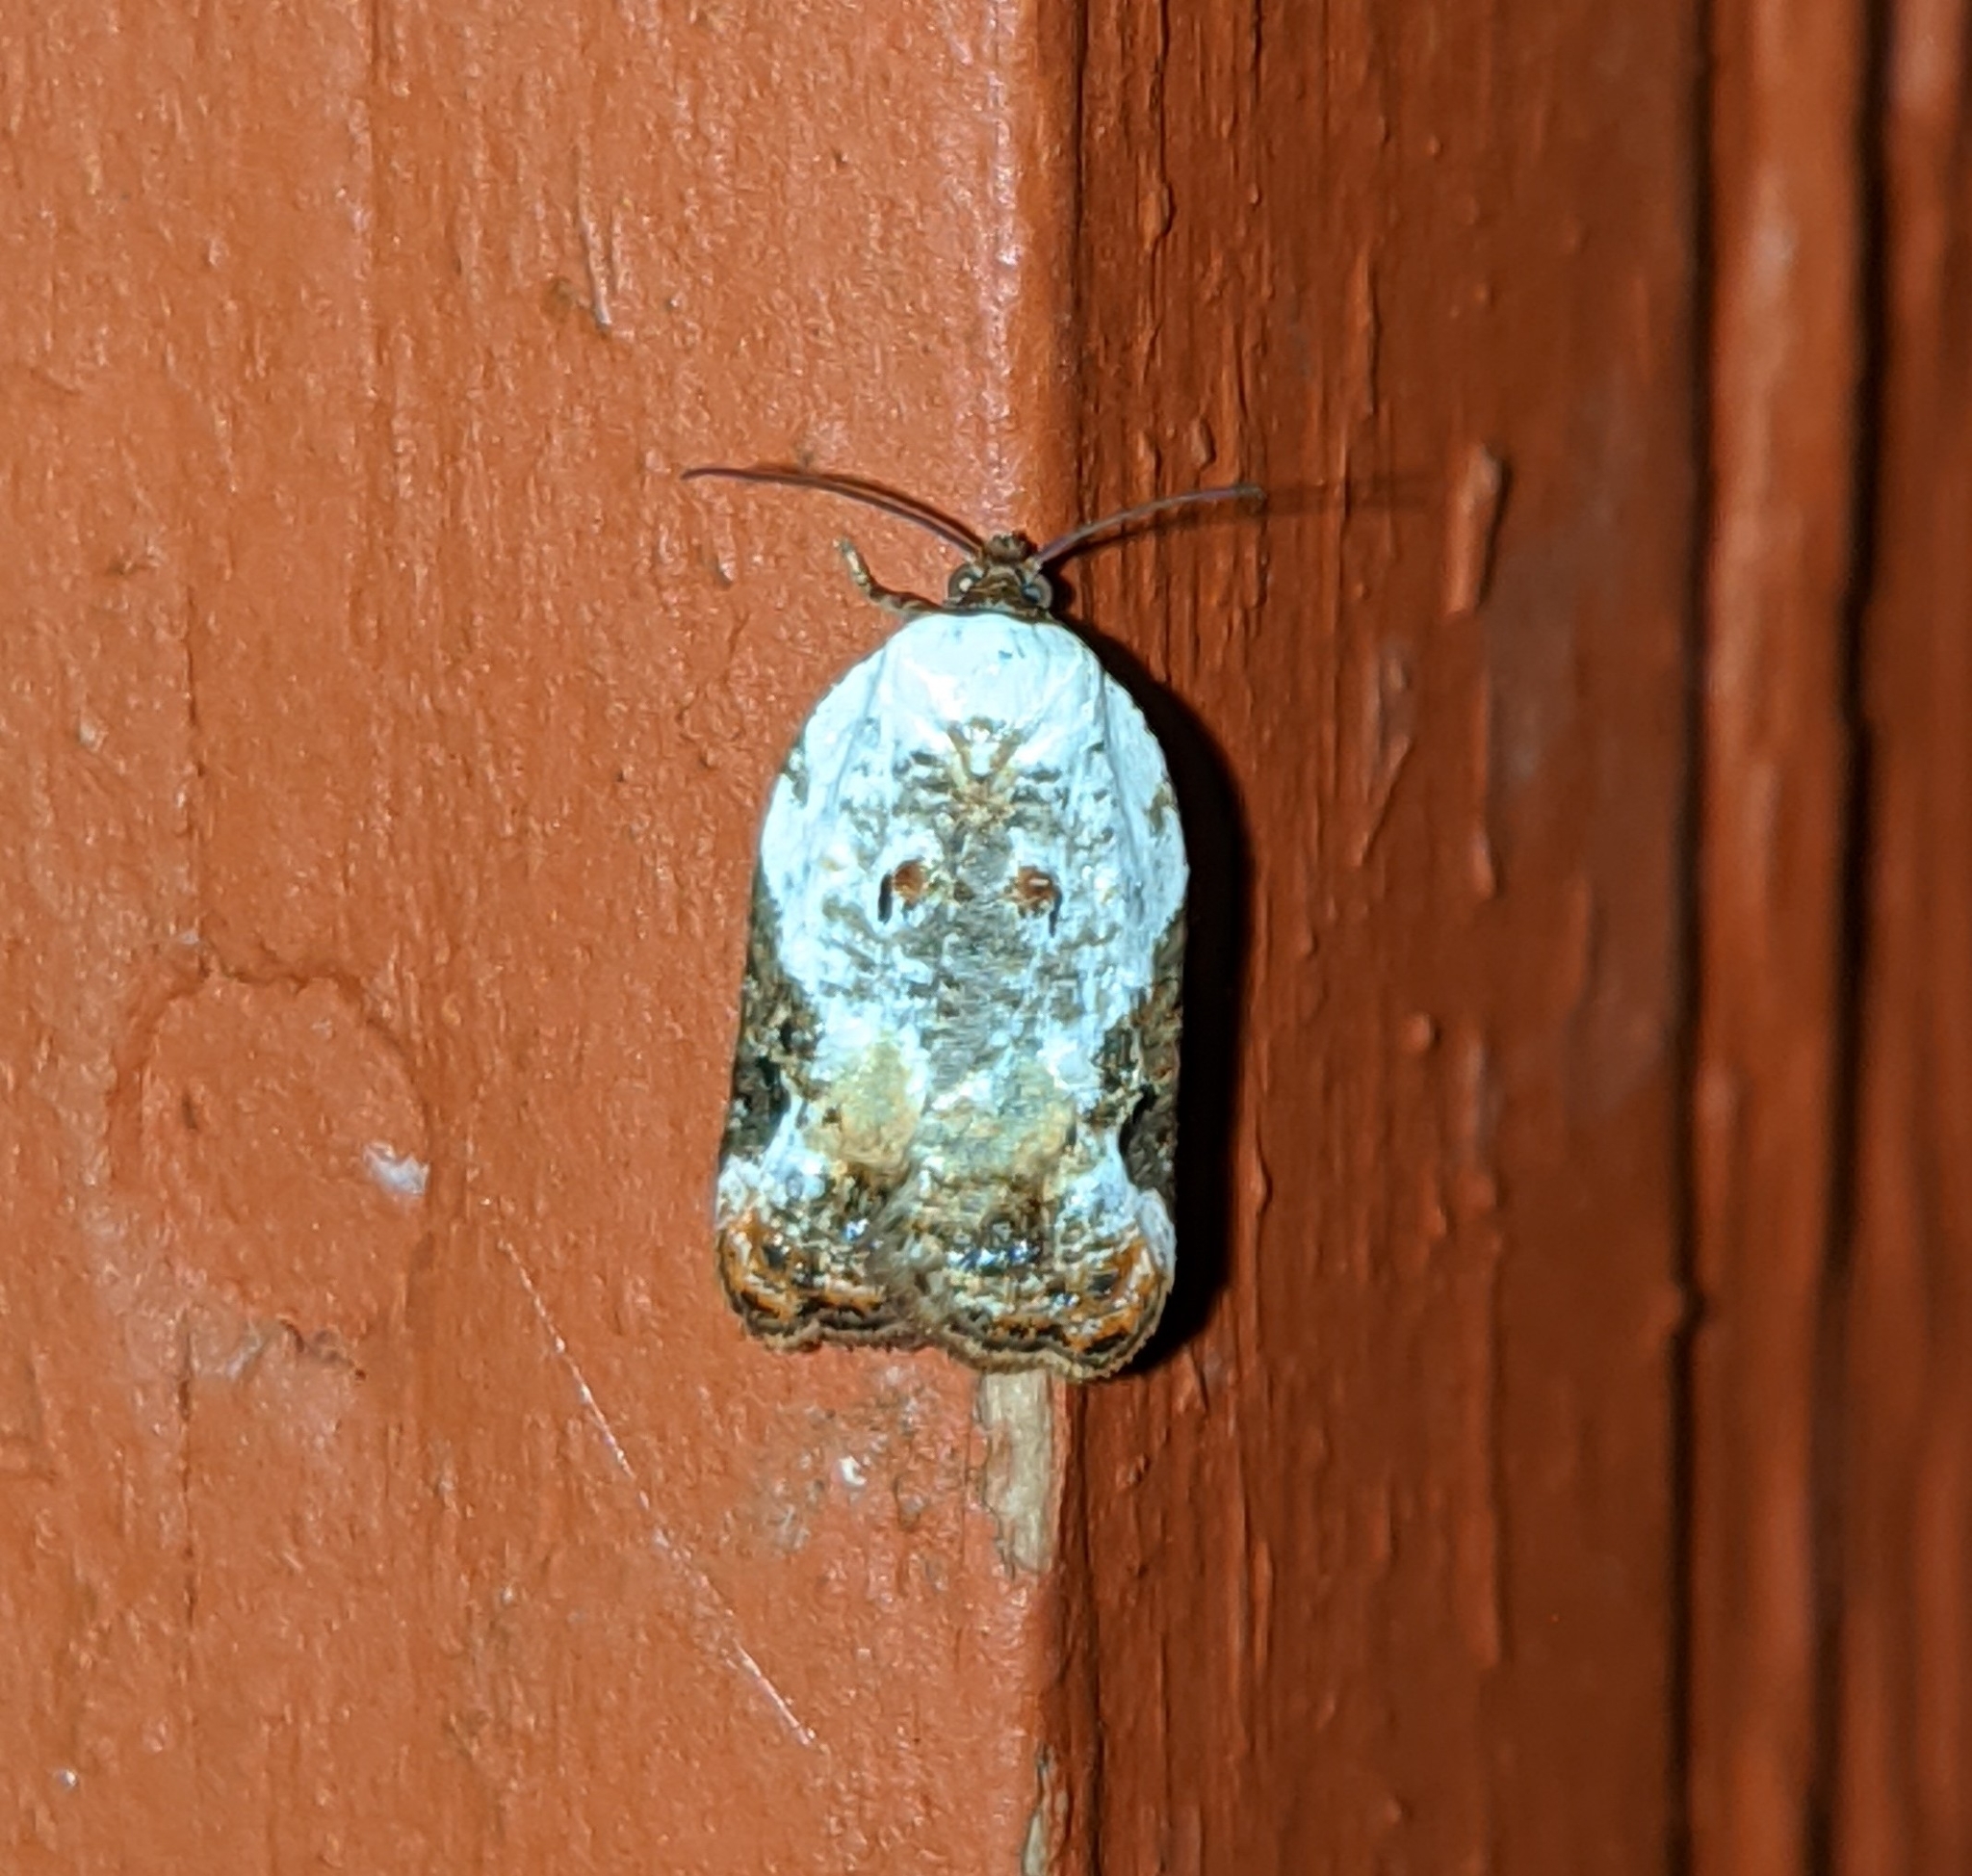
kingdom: Animalia
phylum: Arthropoda
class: Insecta
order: Lepidoptera
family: Tortricidae
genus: Acleris
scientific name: Acleris nivisellana
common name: Snowy-shouldered acleris moth
